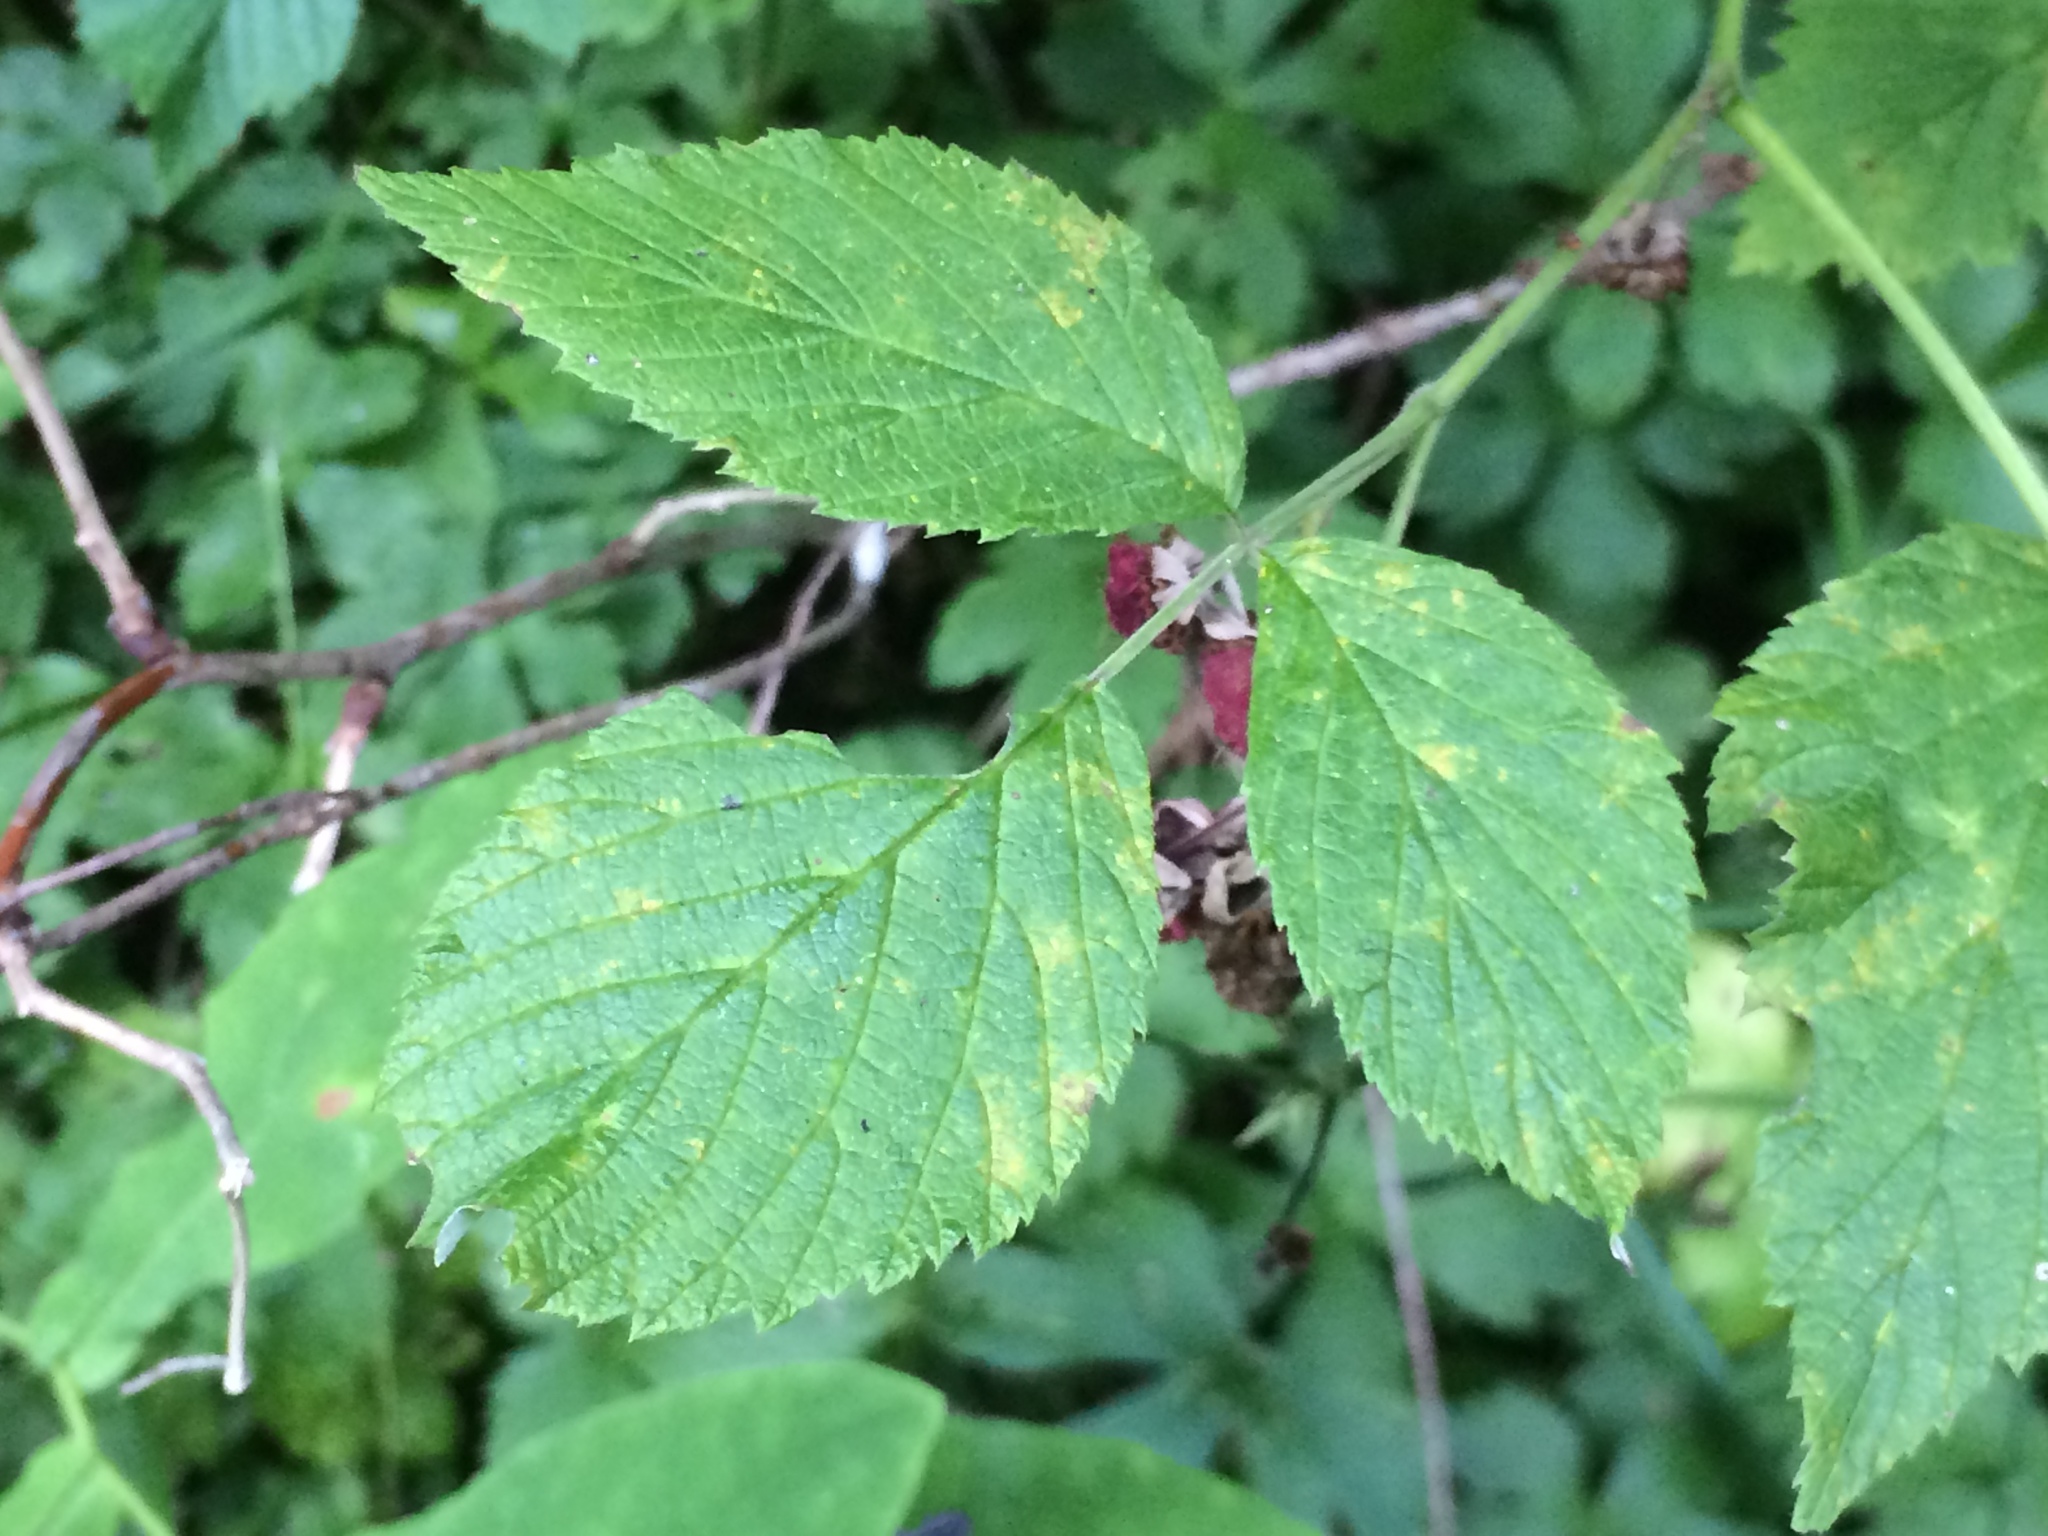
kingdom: Plantae
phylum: Tracheophyta
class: Magnoliopsida
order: Rosales
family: Rosaceae
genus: Rubus
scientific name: Rubus idaeus
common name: Raspberry
